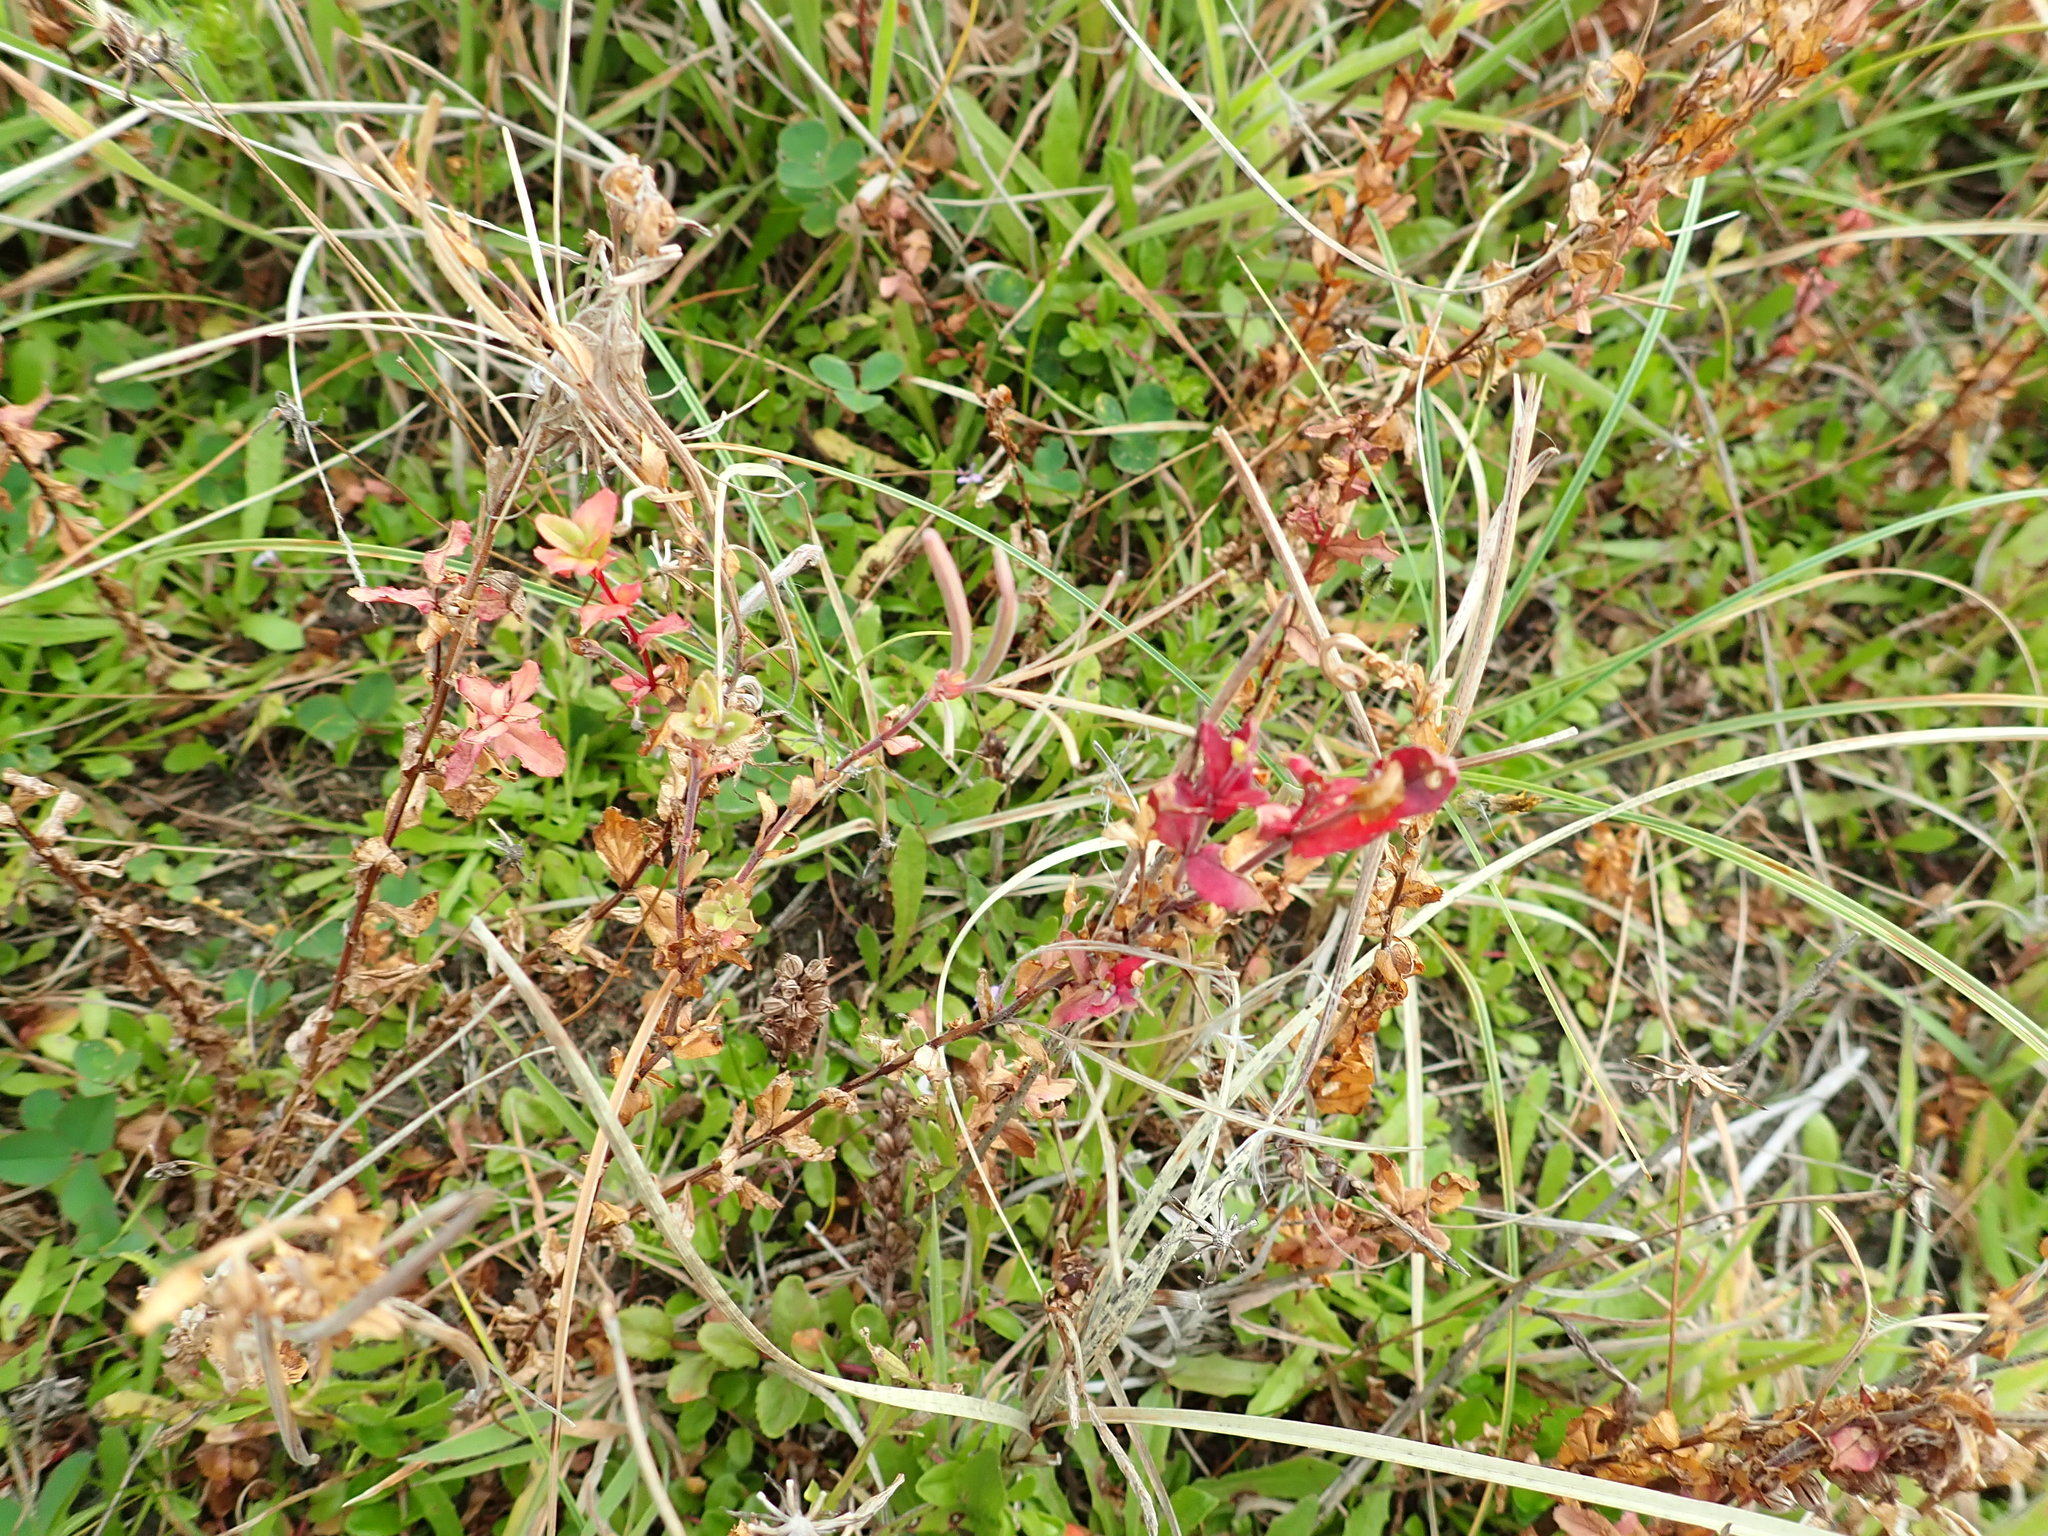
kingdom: Plantae
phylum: Tracheophyta
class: Magnoliopsida
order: Myrtales
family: Onagraceae
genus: Epilobium
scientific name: Epilobium billardiereanum
